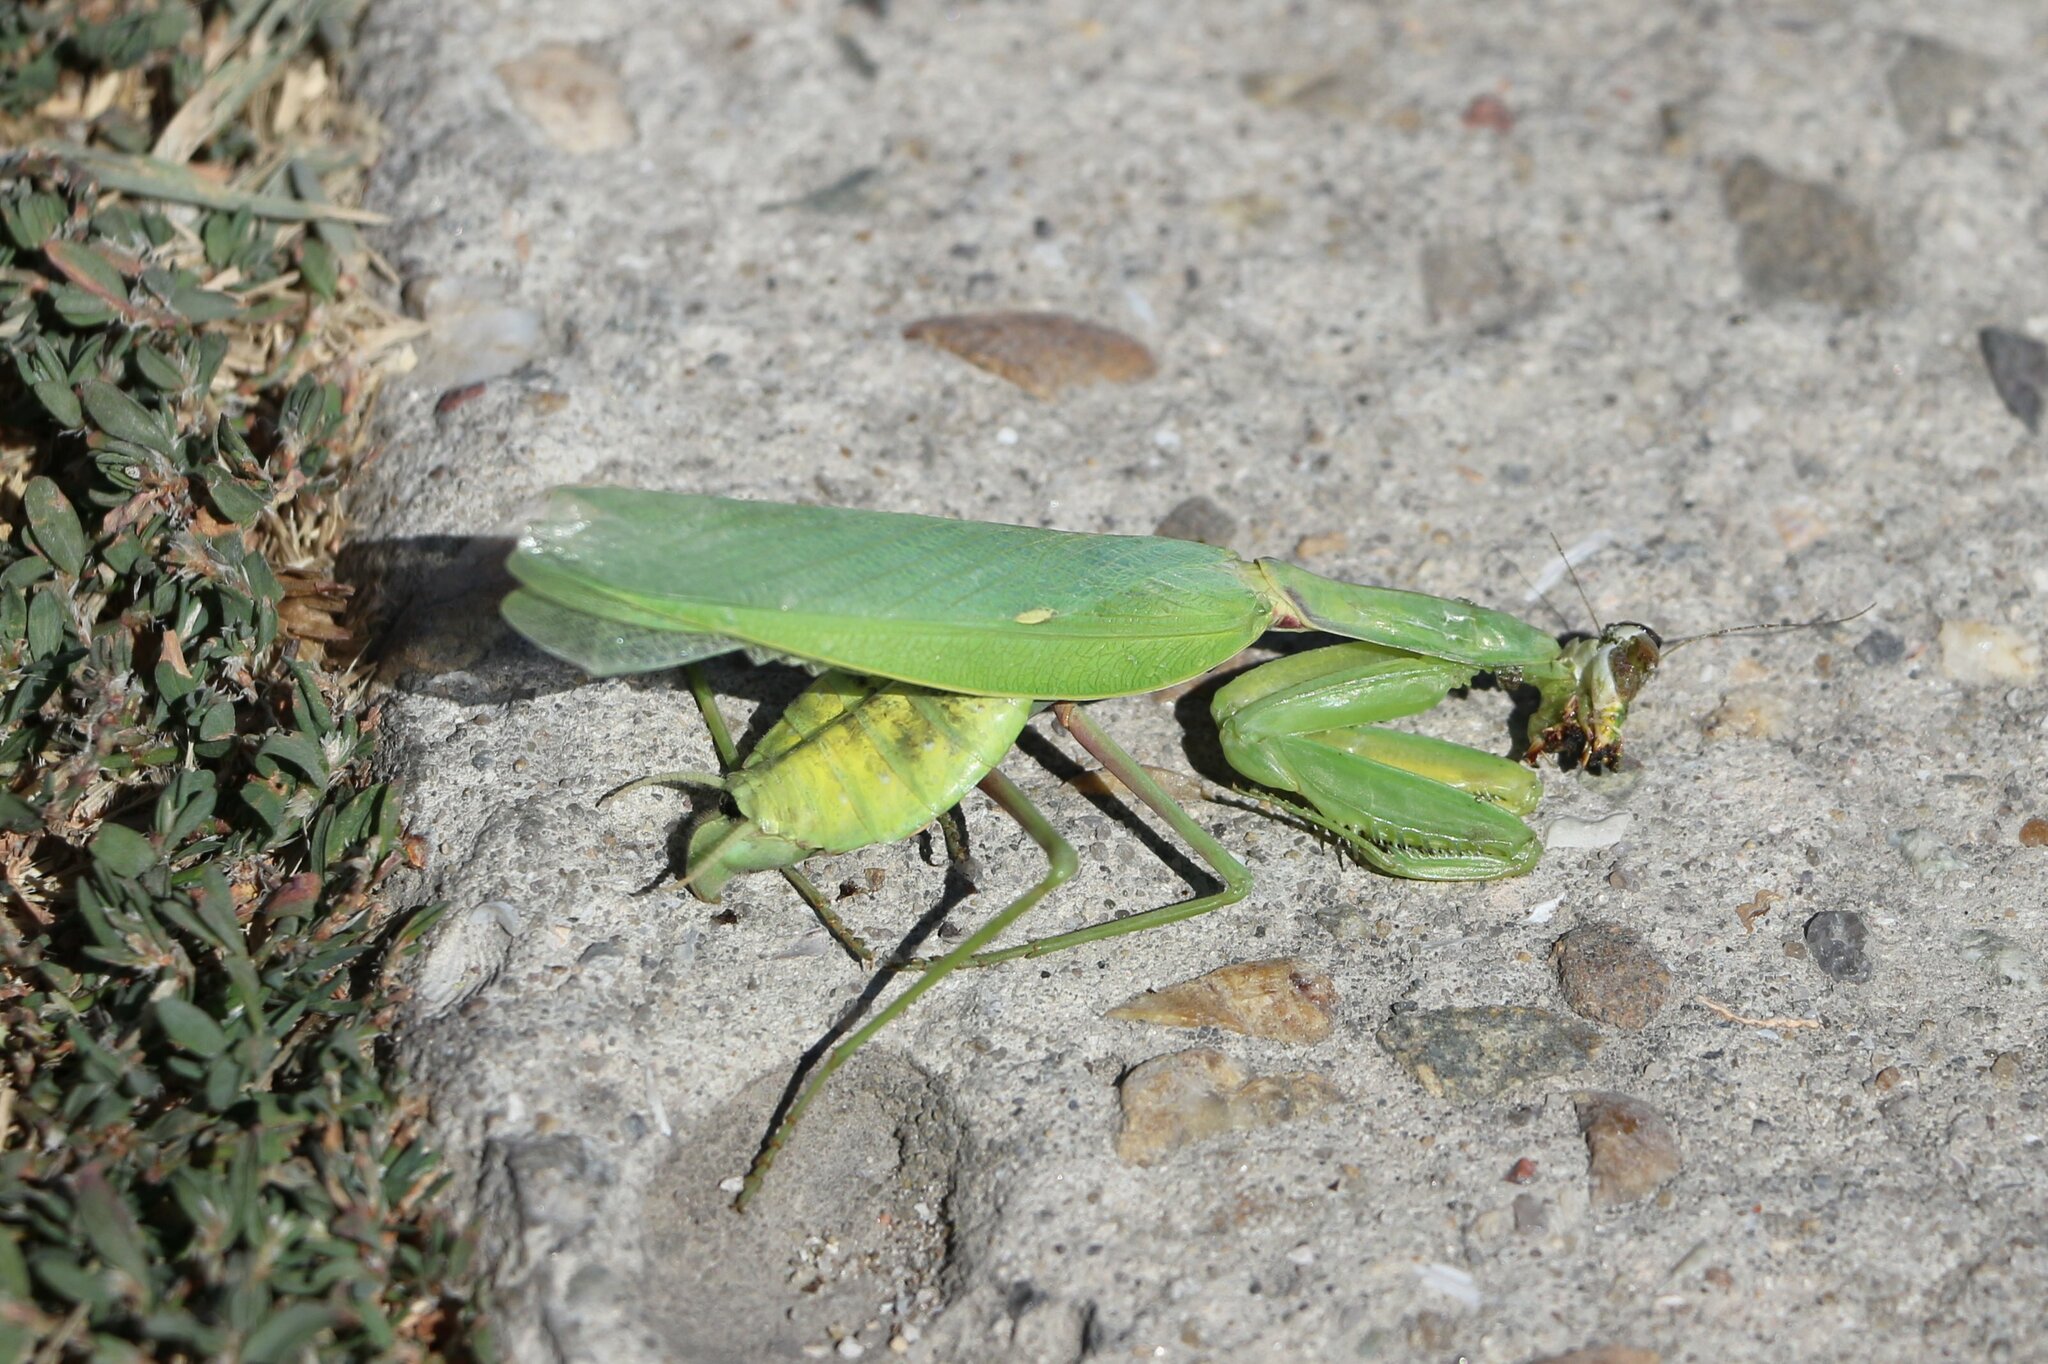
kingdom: Animalia
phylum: Arthropoda
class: Insecta
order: Mantodea
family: Mantidae
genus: Hierodula
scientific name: Hierodula transcaucasica
